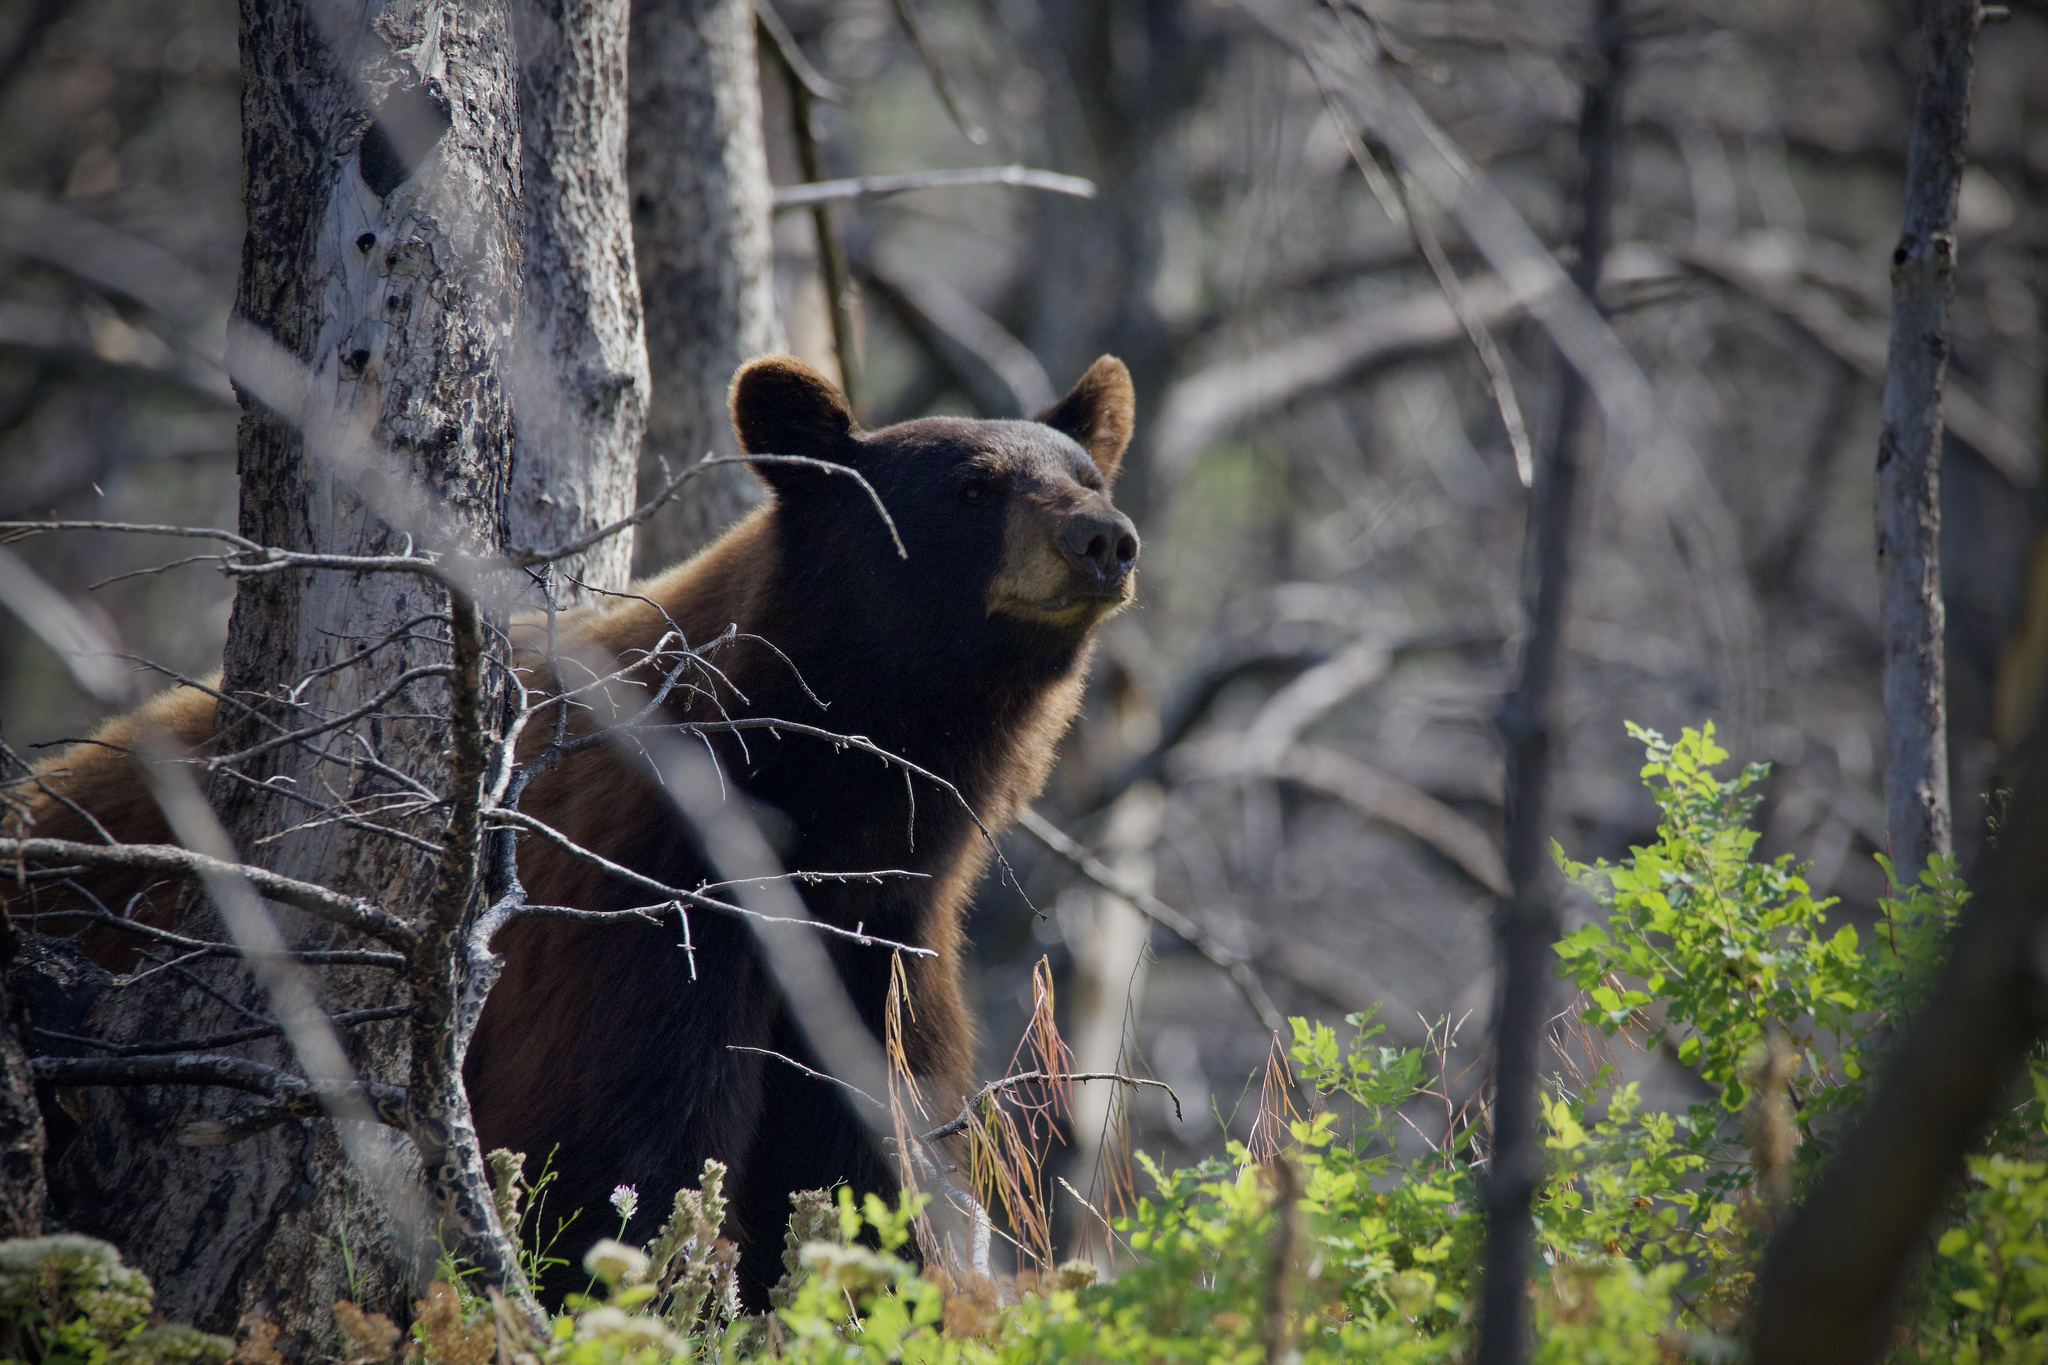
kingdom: Animalia
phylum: Chordata
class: Mammalia
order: Carnivora
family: Ursidae
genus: Ursus
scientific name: Ursus americanus
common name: American black bear
